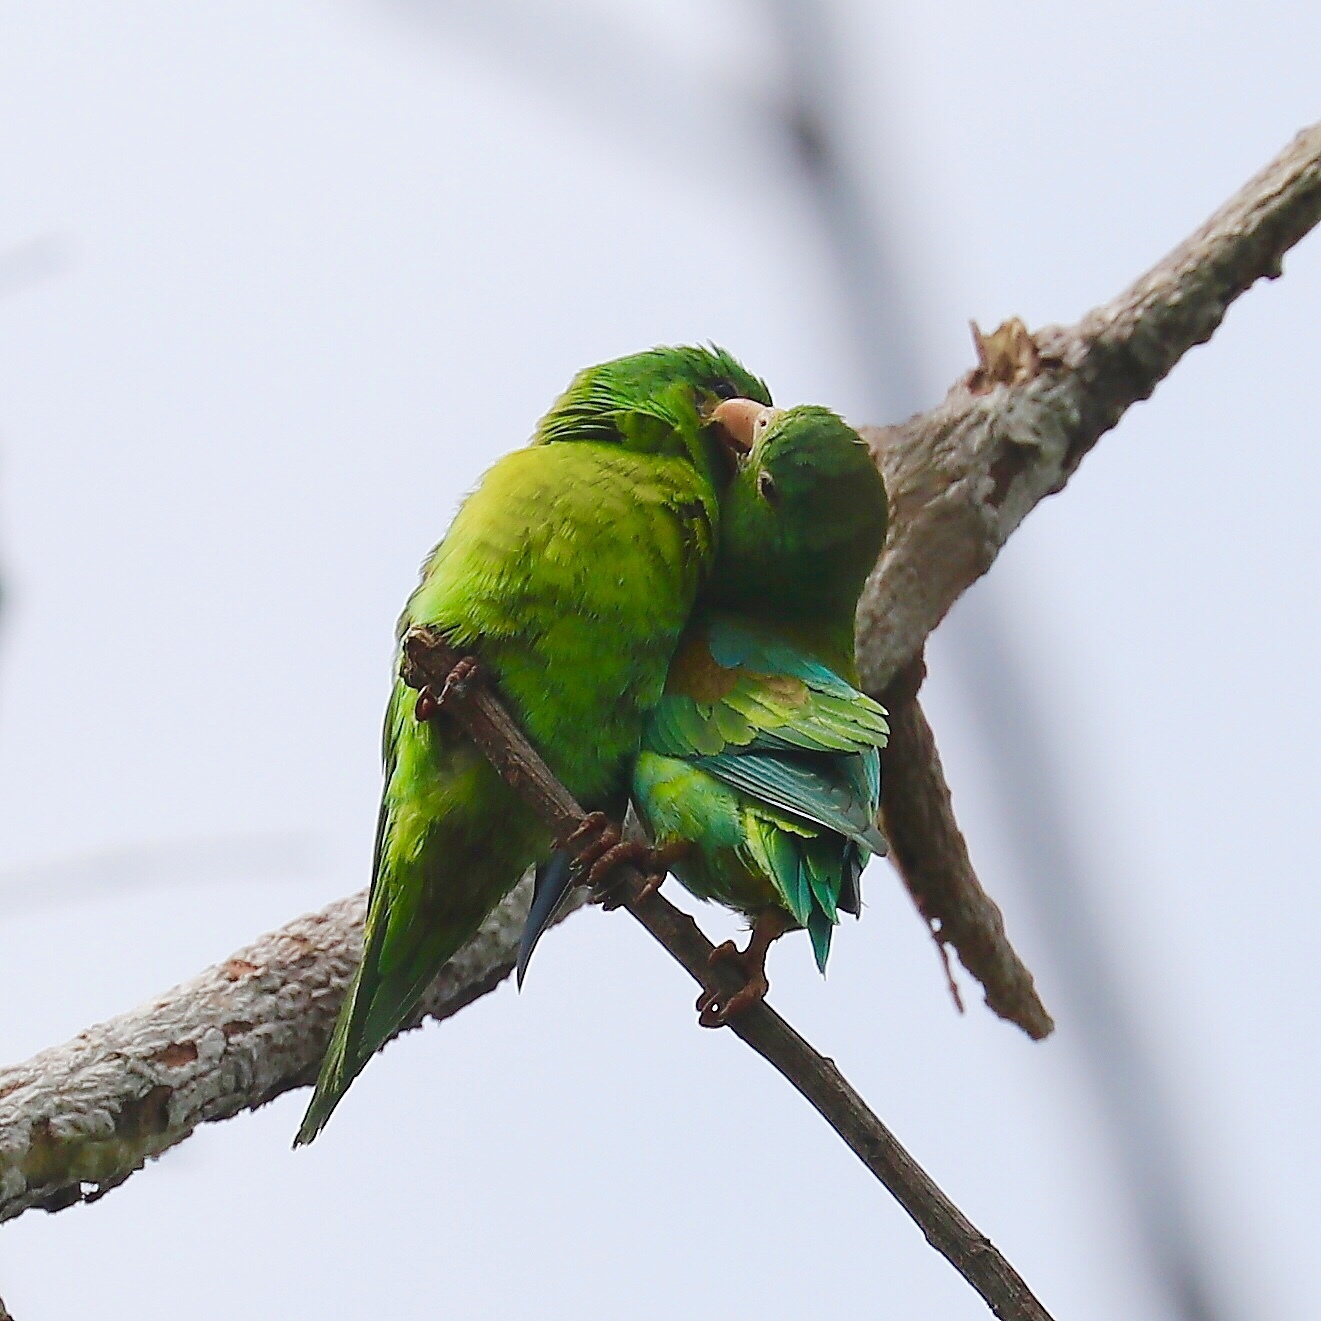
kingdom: Animalia
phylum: Chordata
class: Aves
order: Psittaciformes
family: Psittacidae
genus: Brotogeris
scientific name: Brotogeris jugularis
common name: Orange-chinned parakeet
